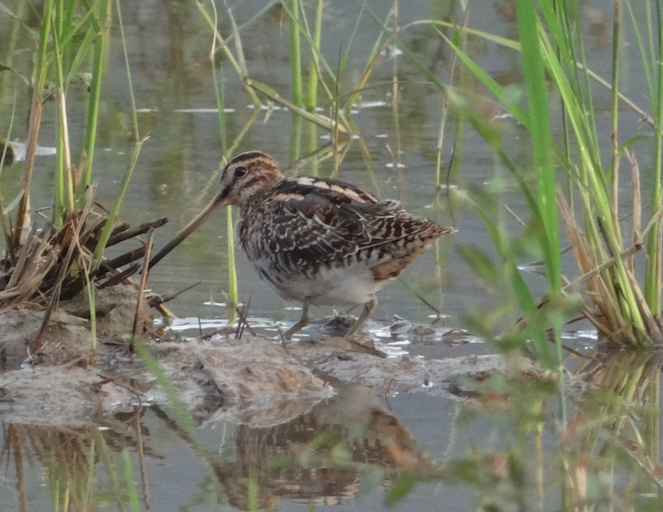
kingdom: Animalia
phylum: Chordata
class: Aves
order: Charadriiformes
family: Scolopacidae
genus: Gallinago
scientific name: Gallinago gallinago
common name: Common snipe
